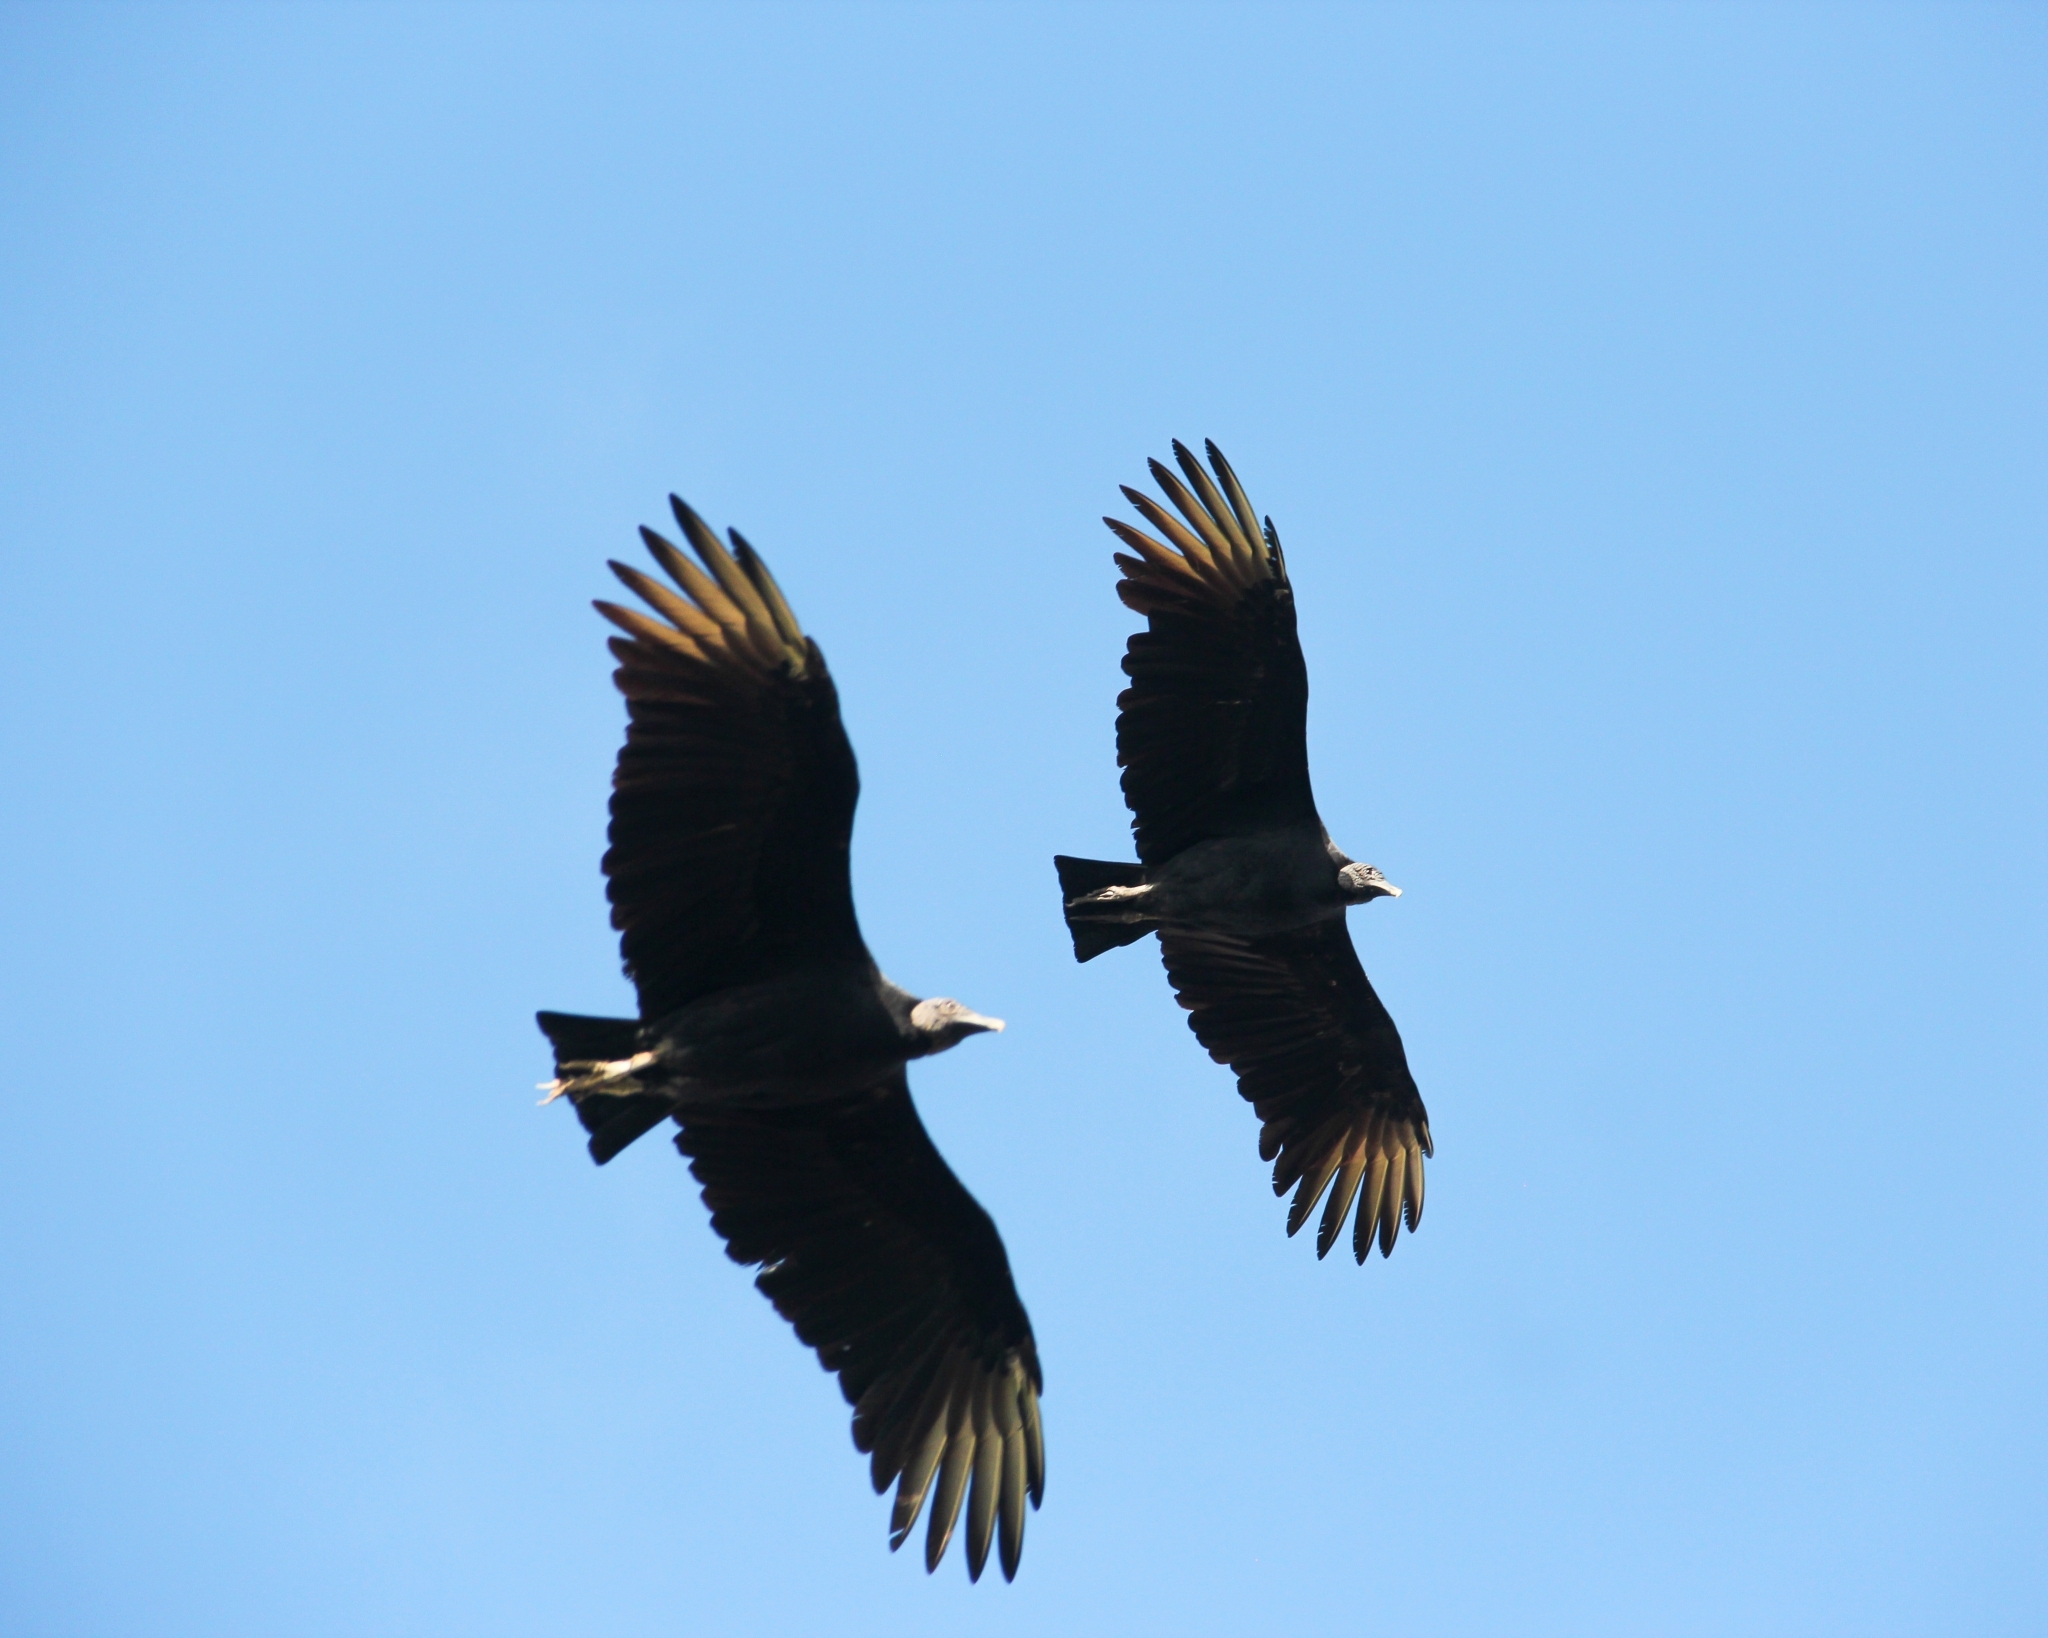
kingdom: Animalia
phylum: Chordata
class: Aves
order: Accipitriformes
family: Cathartidae
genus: Coragyps
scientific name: Coragyps atratus
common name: Black vulture
